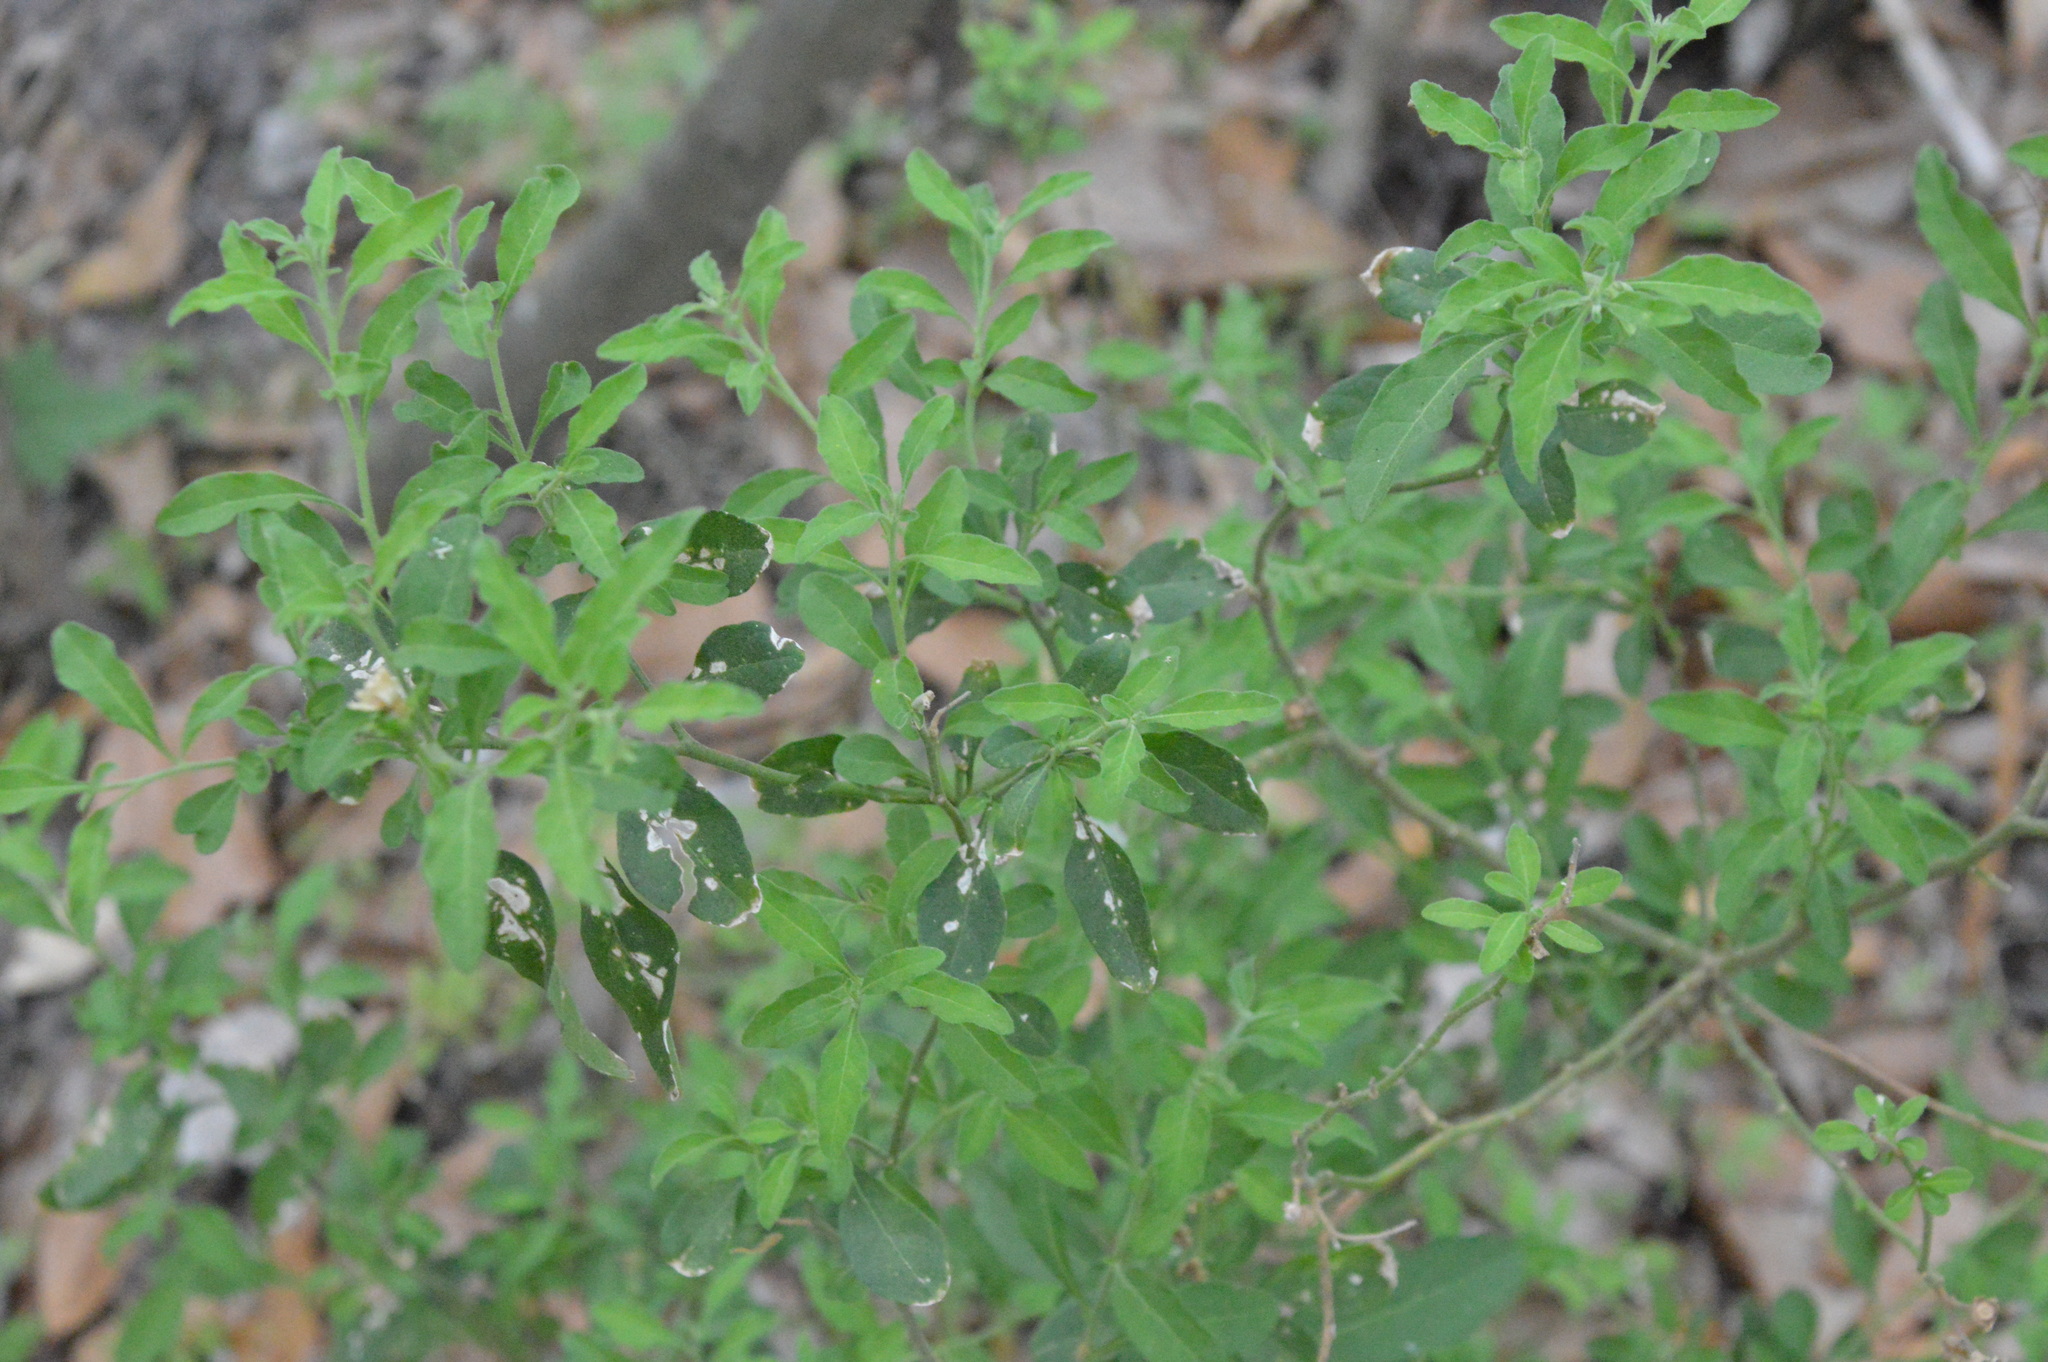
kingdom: Plantae
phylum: Tracheophyta
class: Magnoliopsida
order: Solanales
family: Solanaceae
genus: Solanum
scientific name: Solanum pseudocapsicum
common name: Jerusalem cherry
